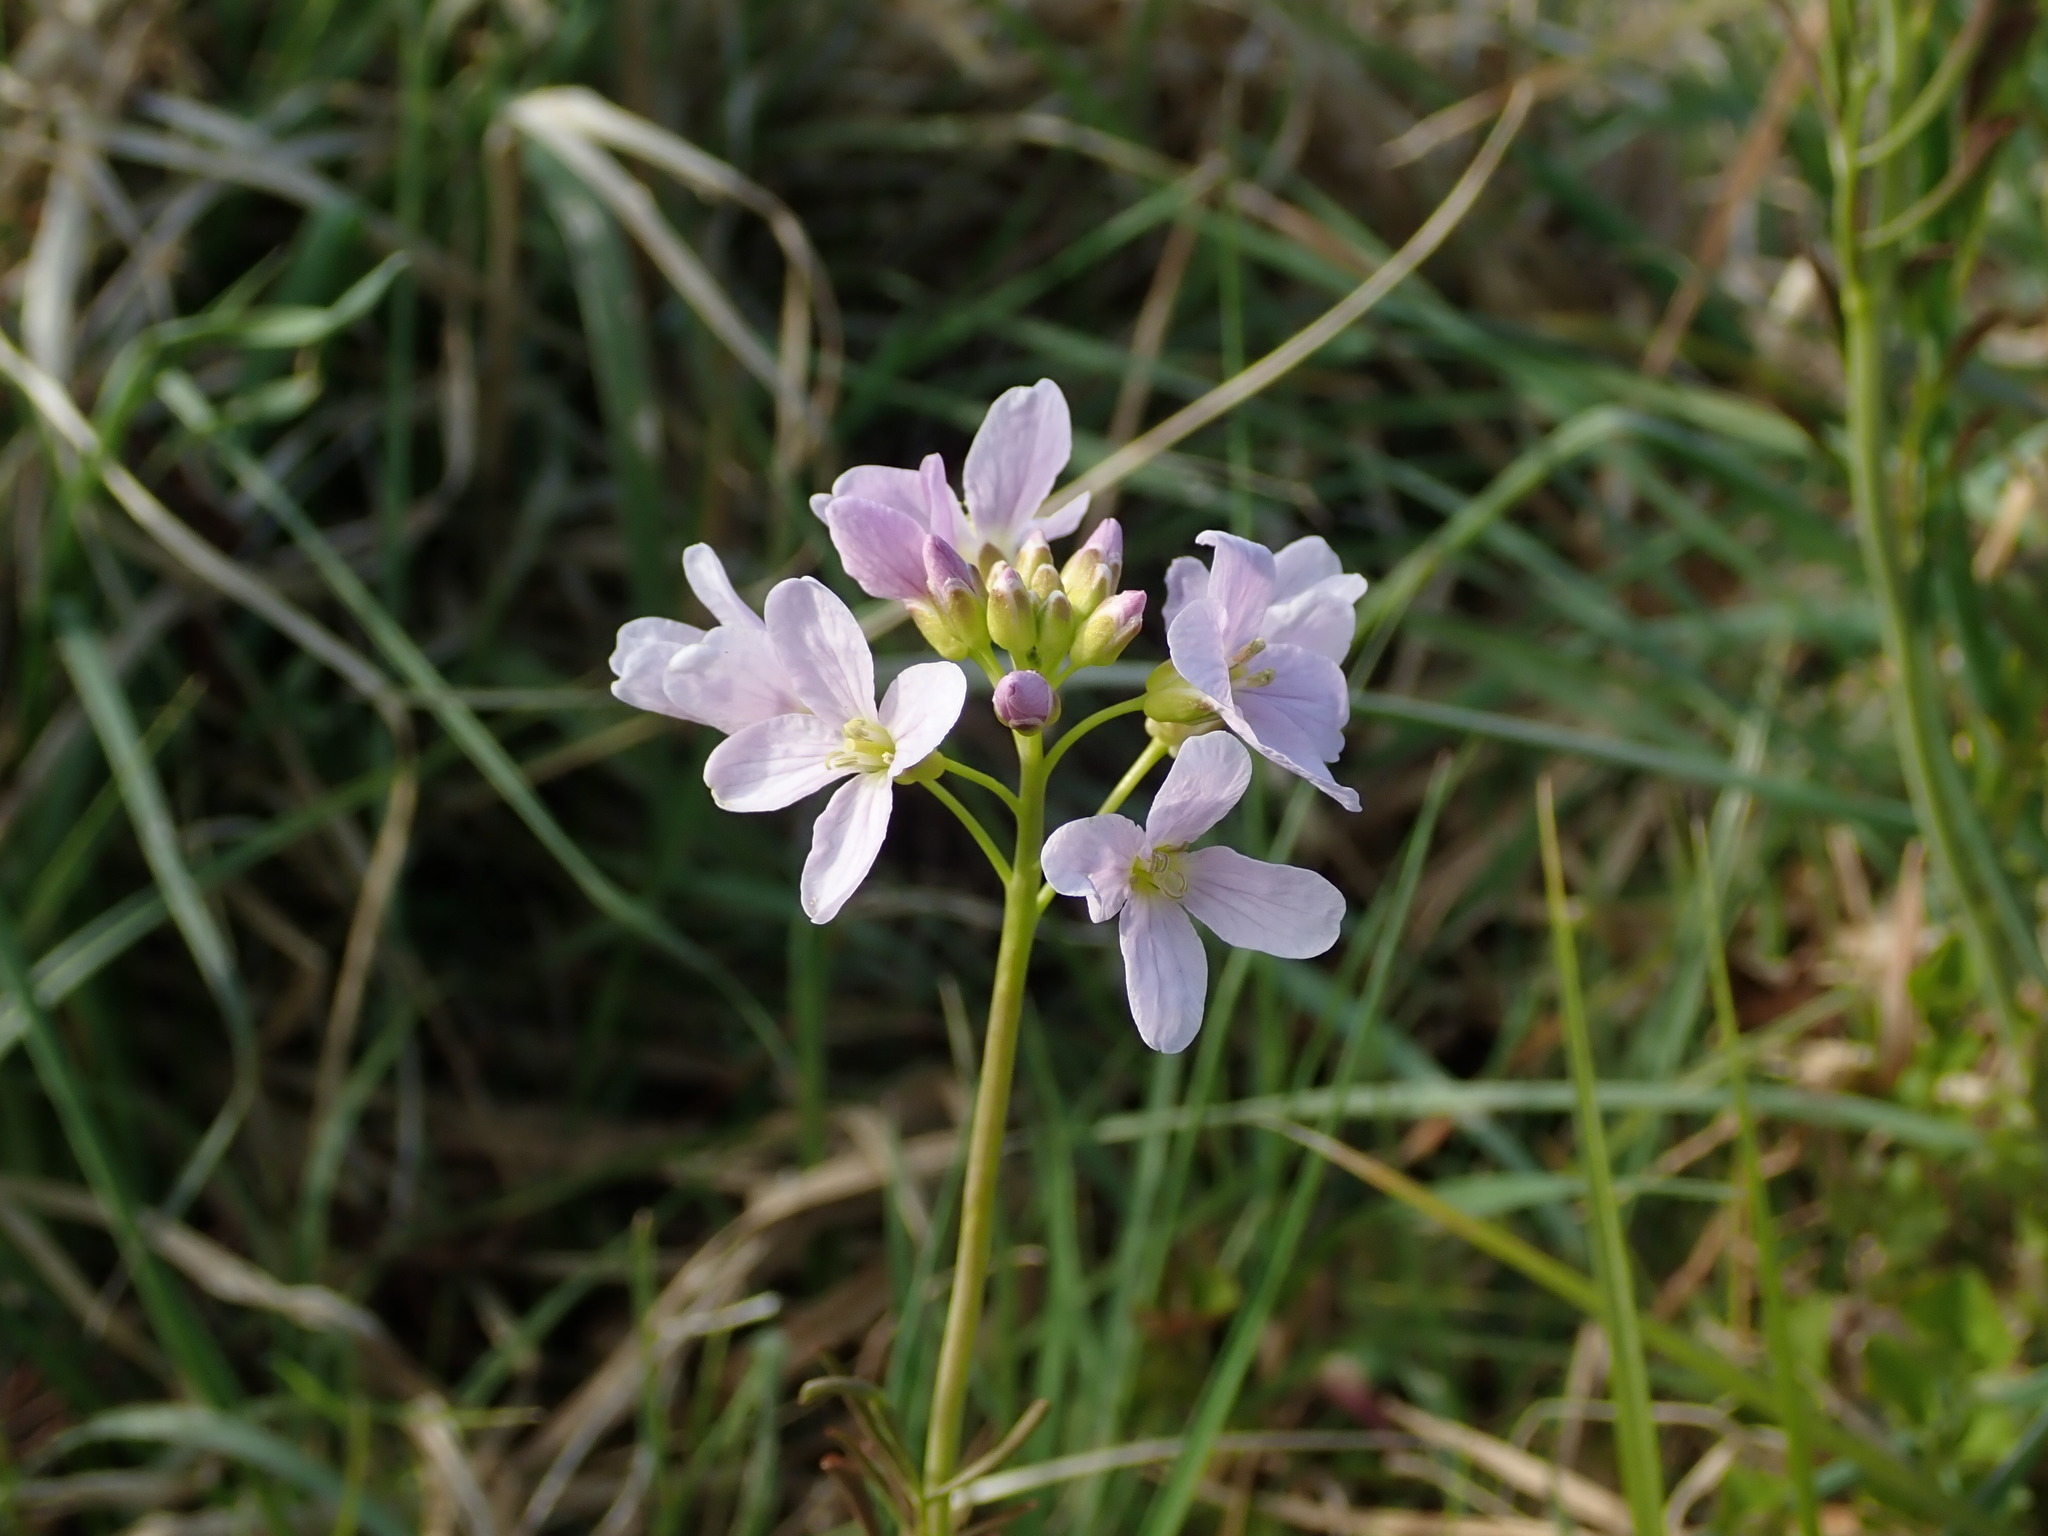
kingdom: Plantae
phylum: Tracheophyta
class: Magnoliopsida
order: Brassicales
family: Brassicaceae
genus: Cardamine
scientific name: Cardamine pratensis
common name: Cuckoo flower
